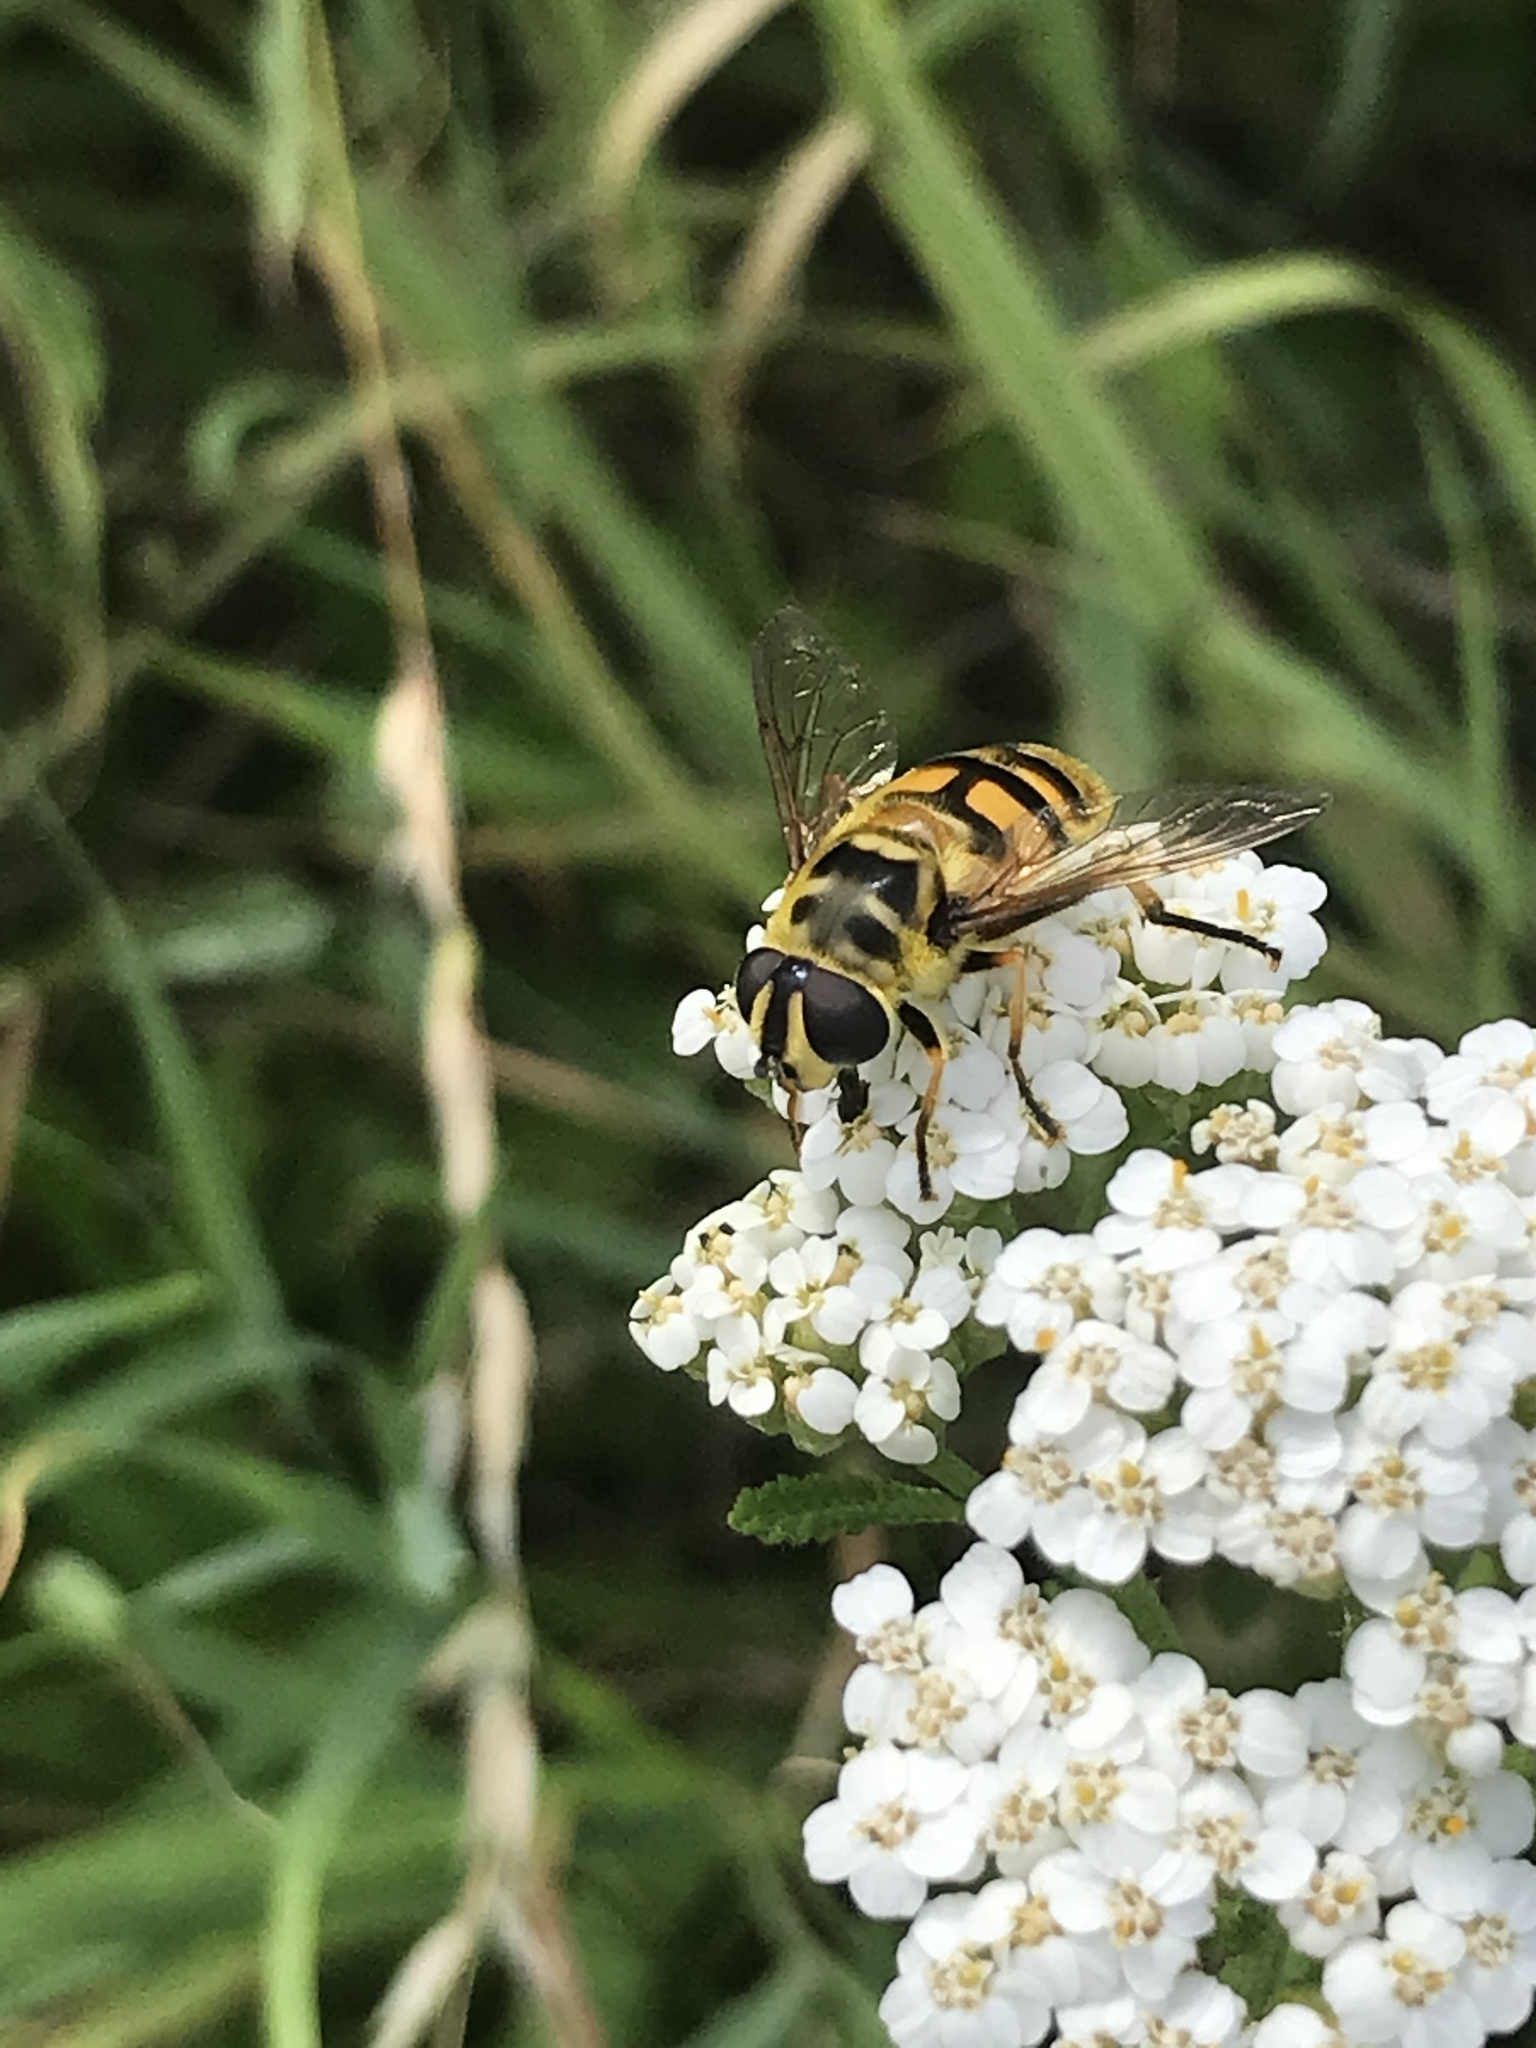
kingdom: Animalia
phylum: Arthropoda
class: Insecta
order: Diptera
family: Syrphidae
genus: Myathropa
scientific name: Myathropa florea
